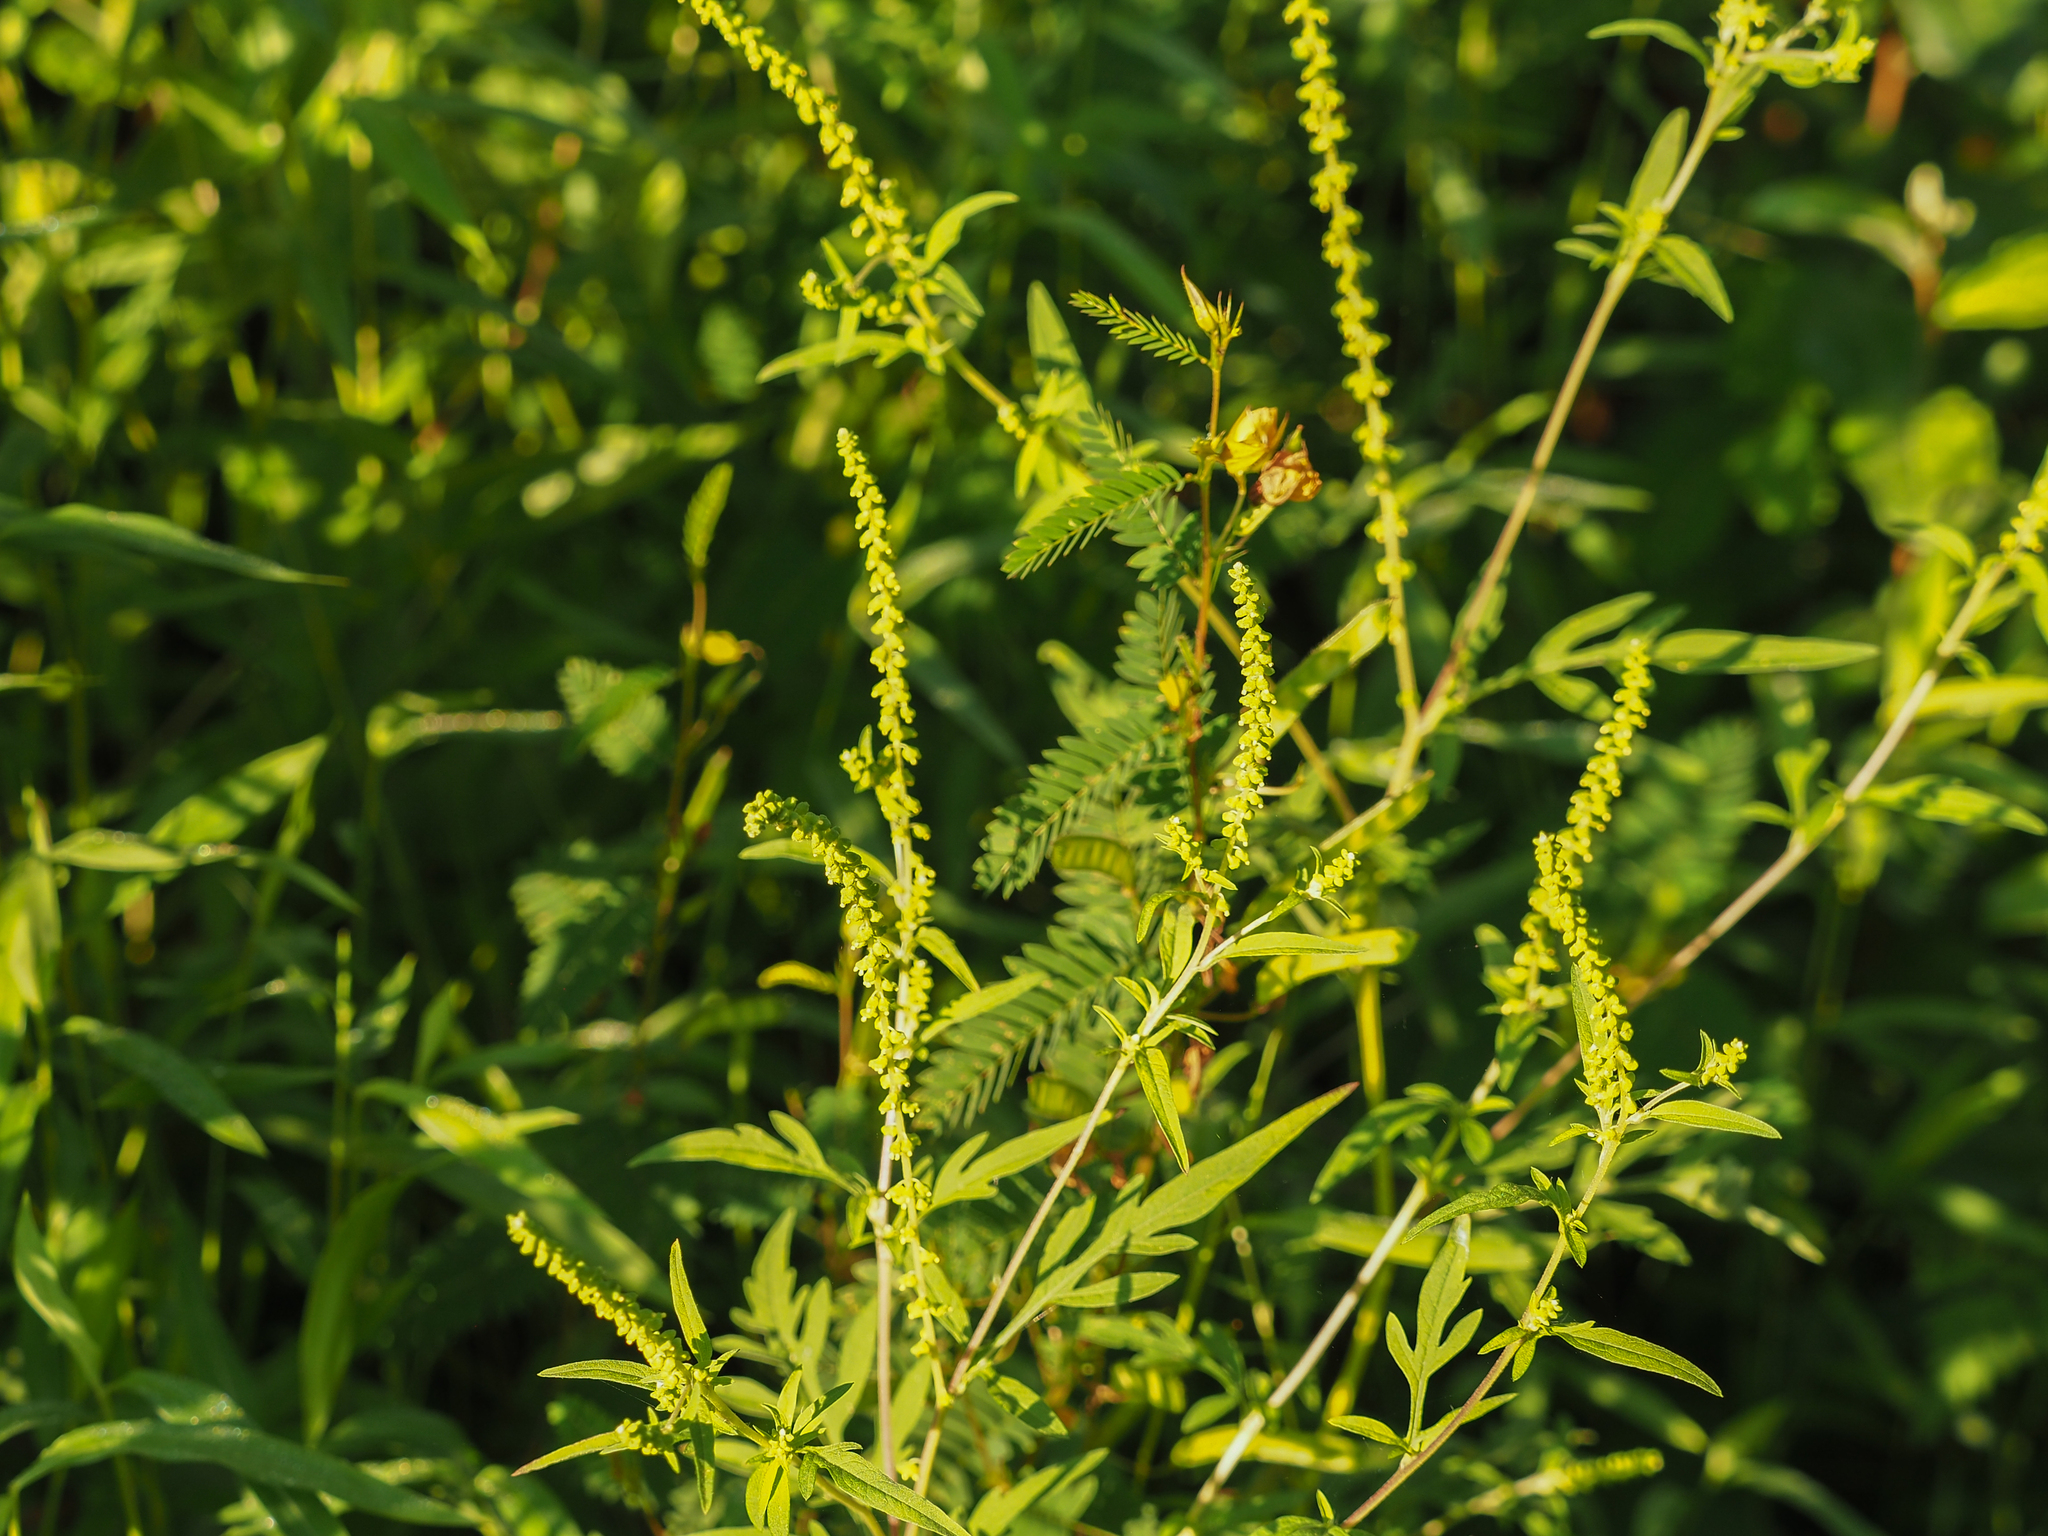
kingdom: Plantae
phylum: Tracheophyta
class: Magnoliopsida
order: Asterales
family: Asteraceae
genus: Ambrosia
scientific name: Ambrosia artemisiifolia
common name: Annual ragweed
